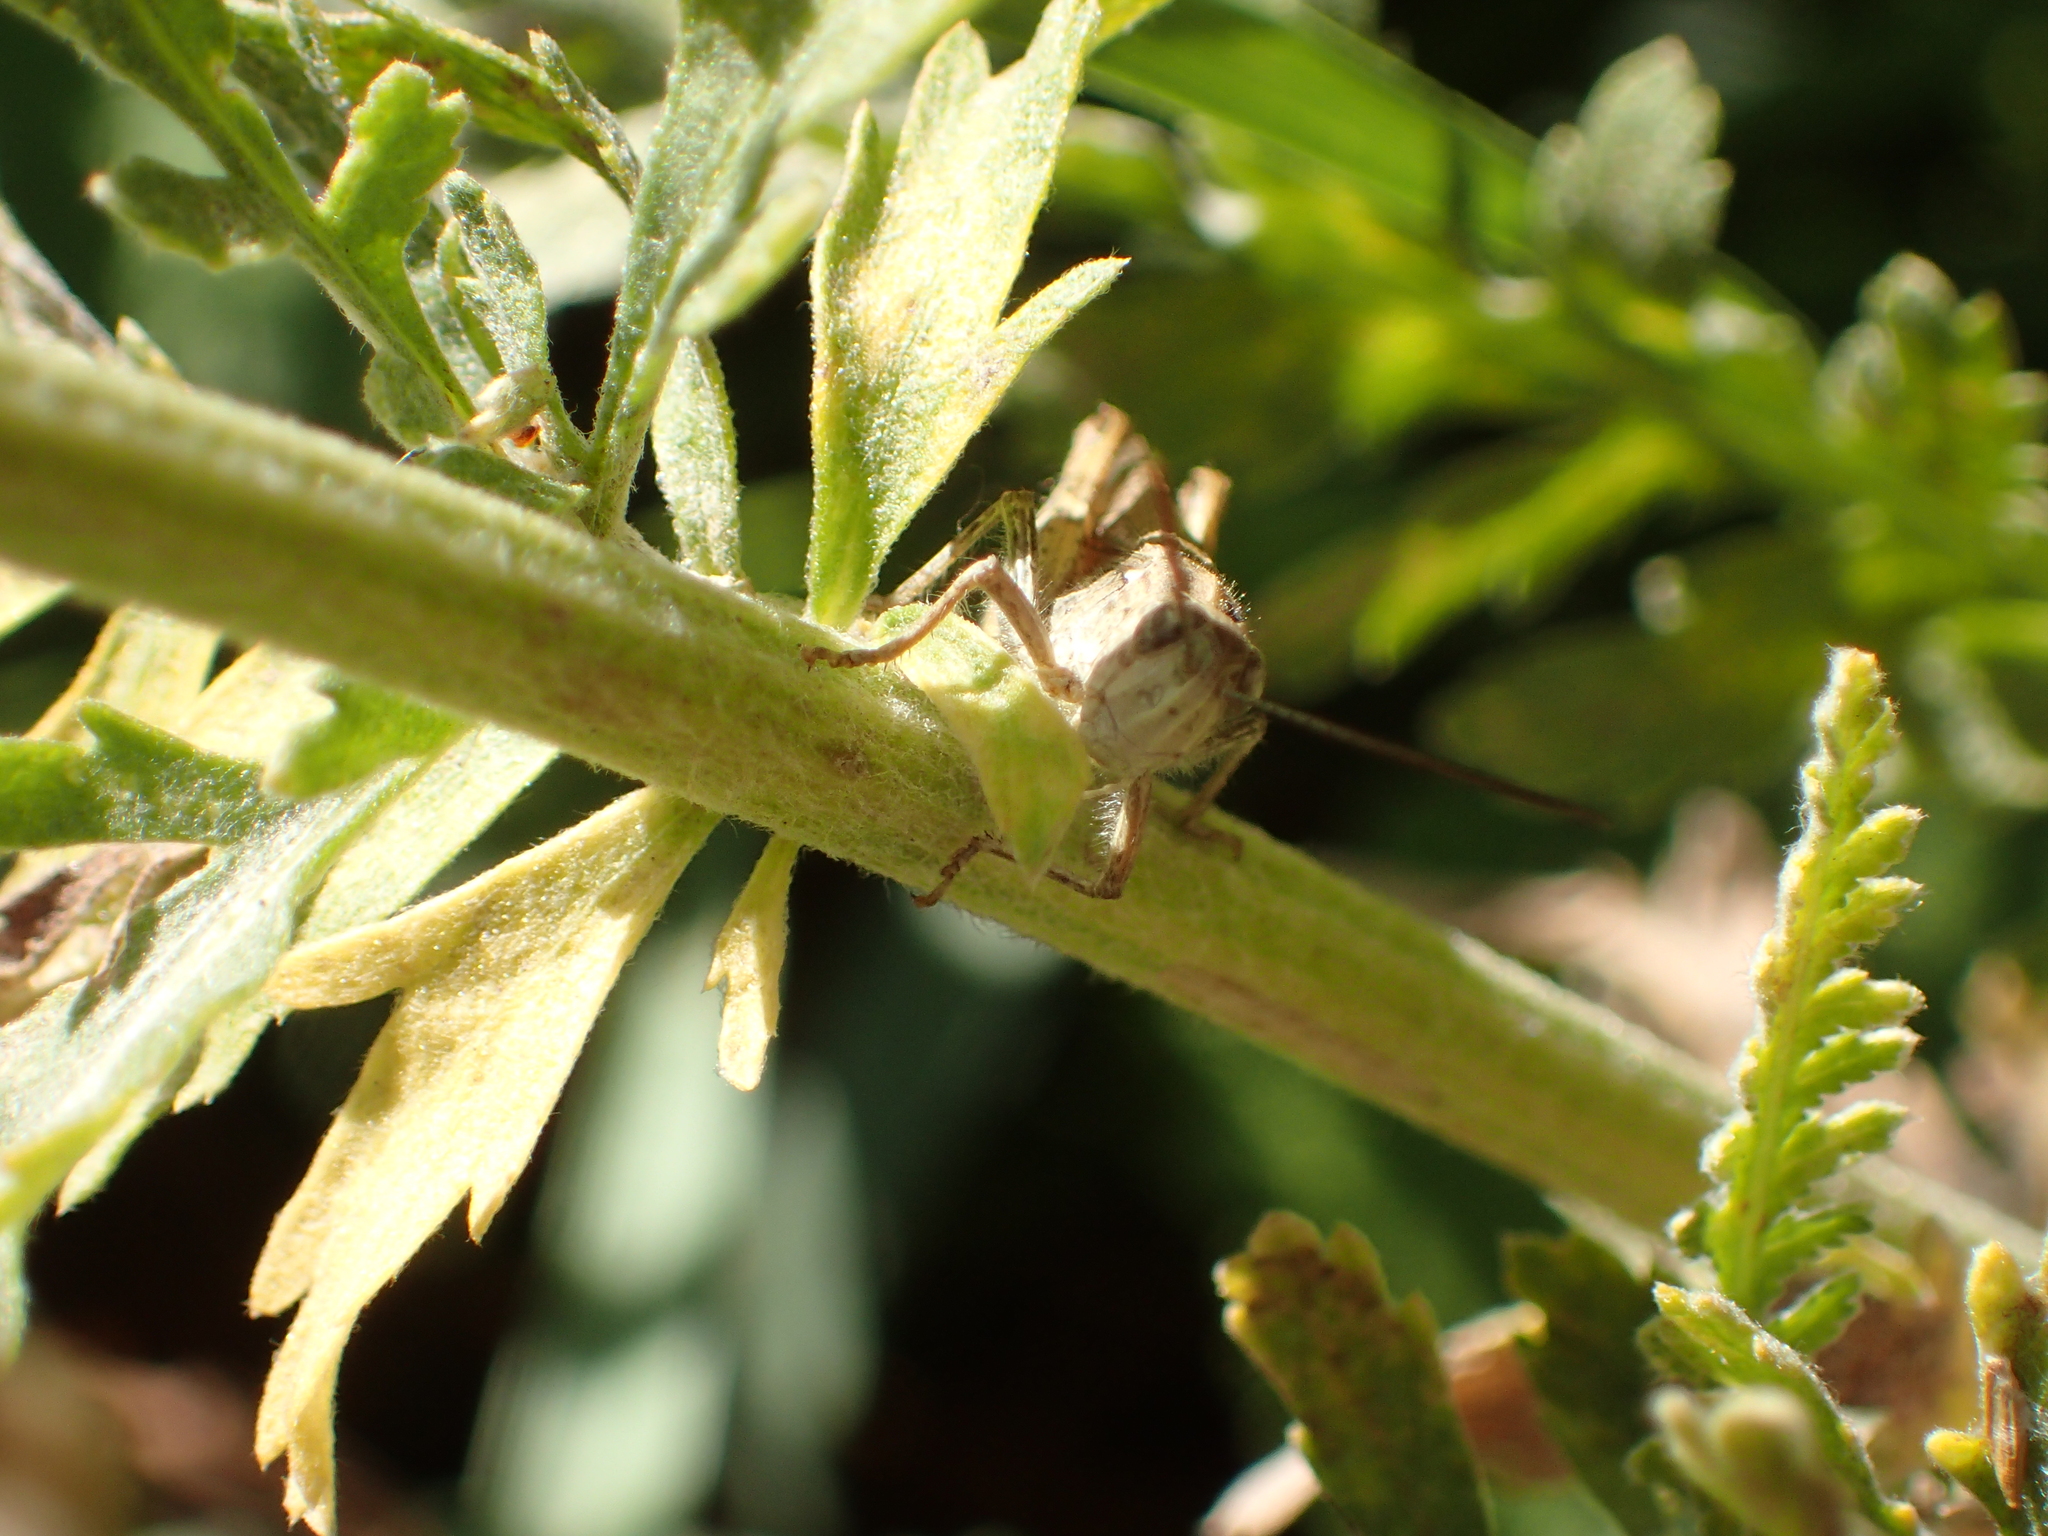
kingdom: Animalia
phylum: Arthropoda
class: Insecta
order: Orthoptera
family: Acrididae
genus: Chorthippus
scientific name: Chorthippus brunneus
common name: Field grasshopper
